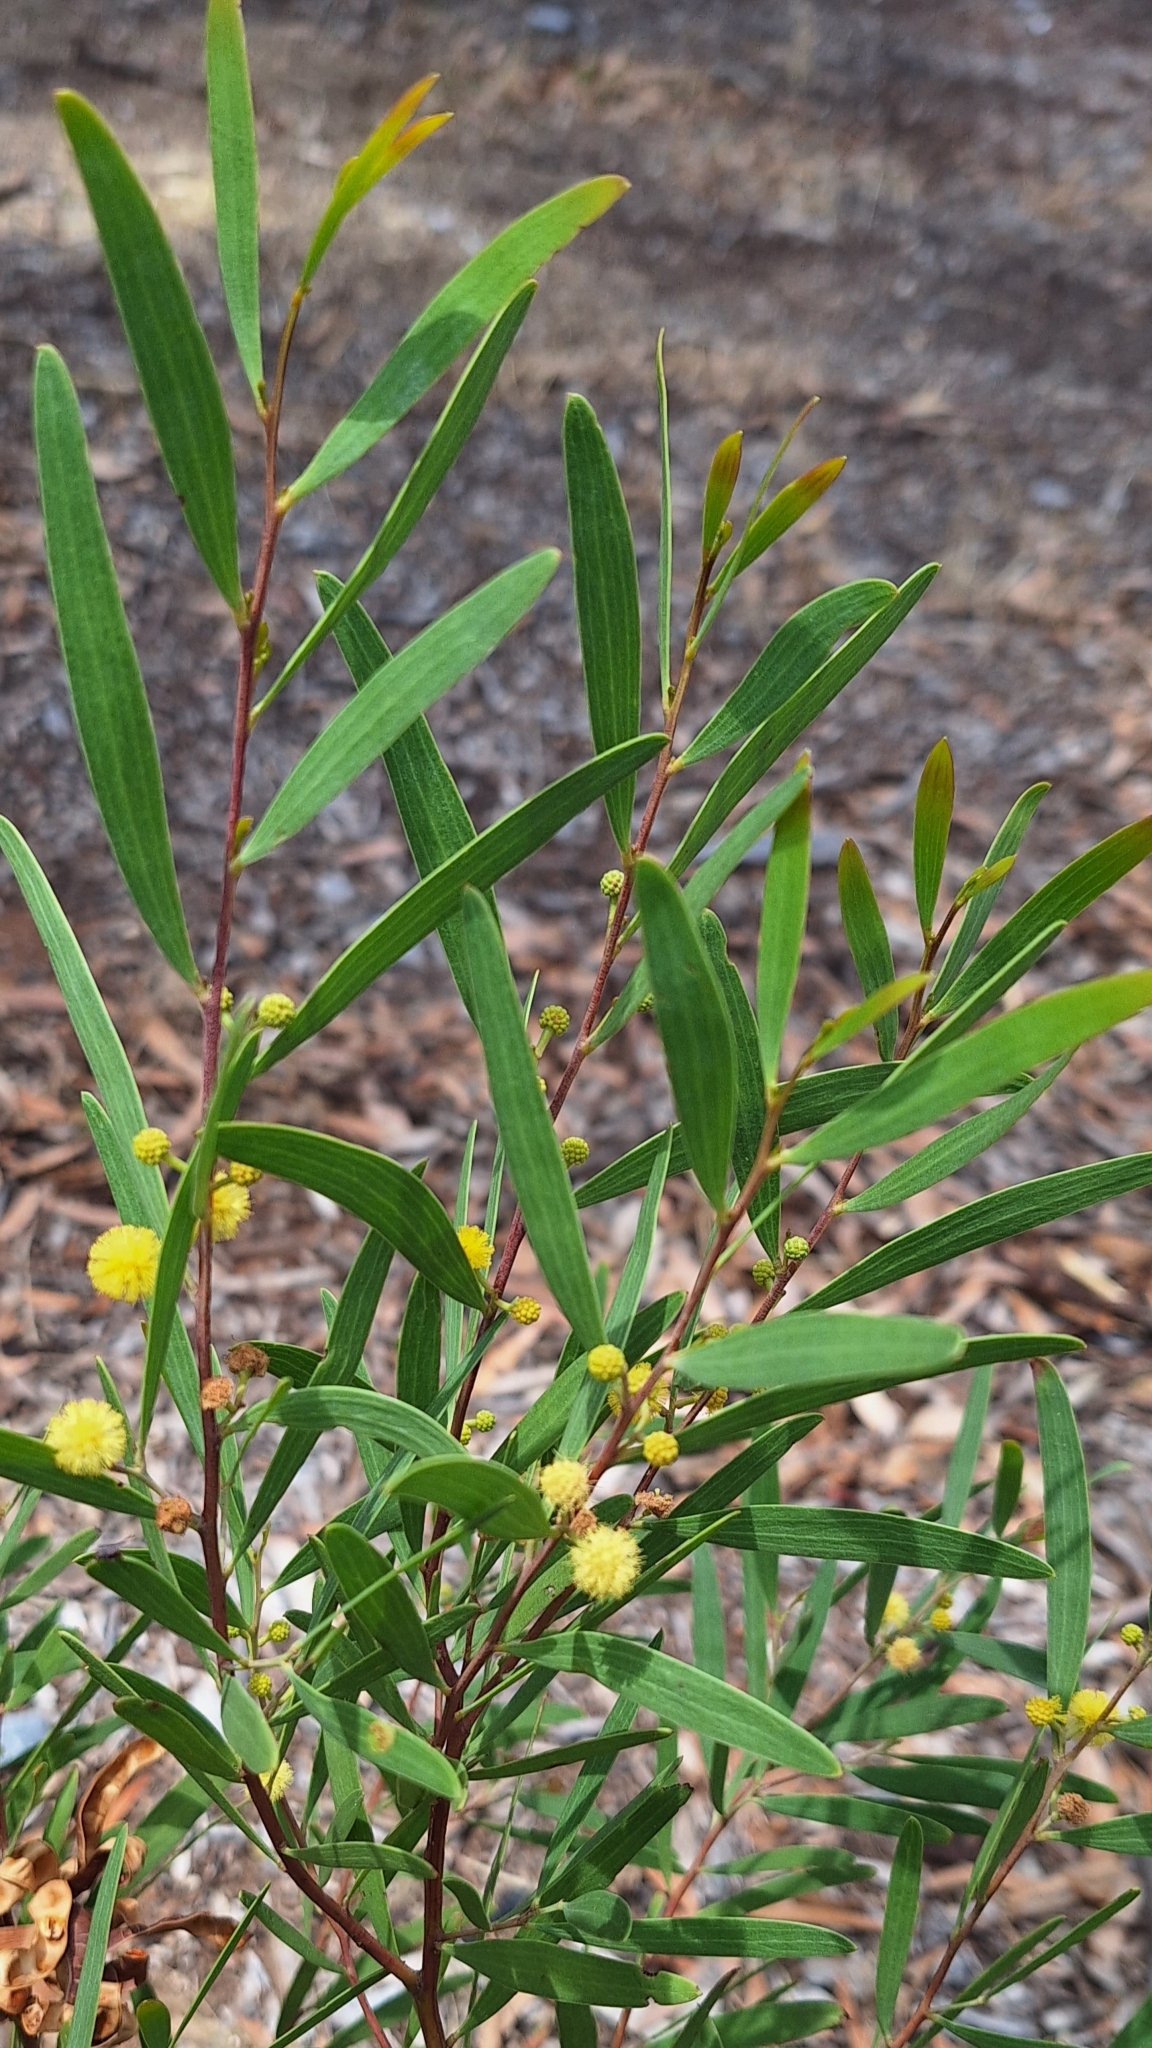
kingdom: Plantae
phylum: Tracheophyta
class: Magnoliopsida
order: Fabales
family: Fabaceae
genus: Acacia
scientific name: Acacia cyclops
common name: Coastal wattle
